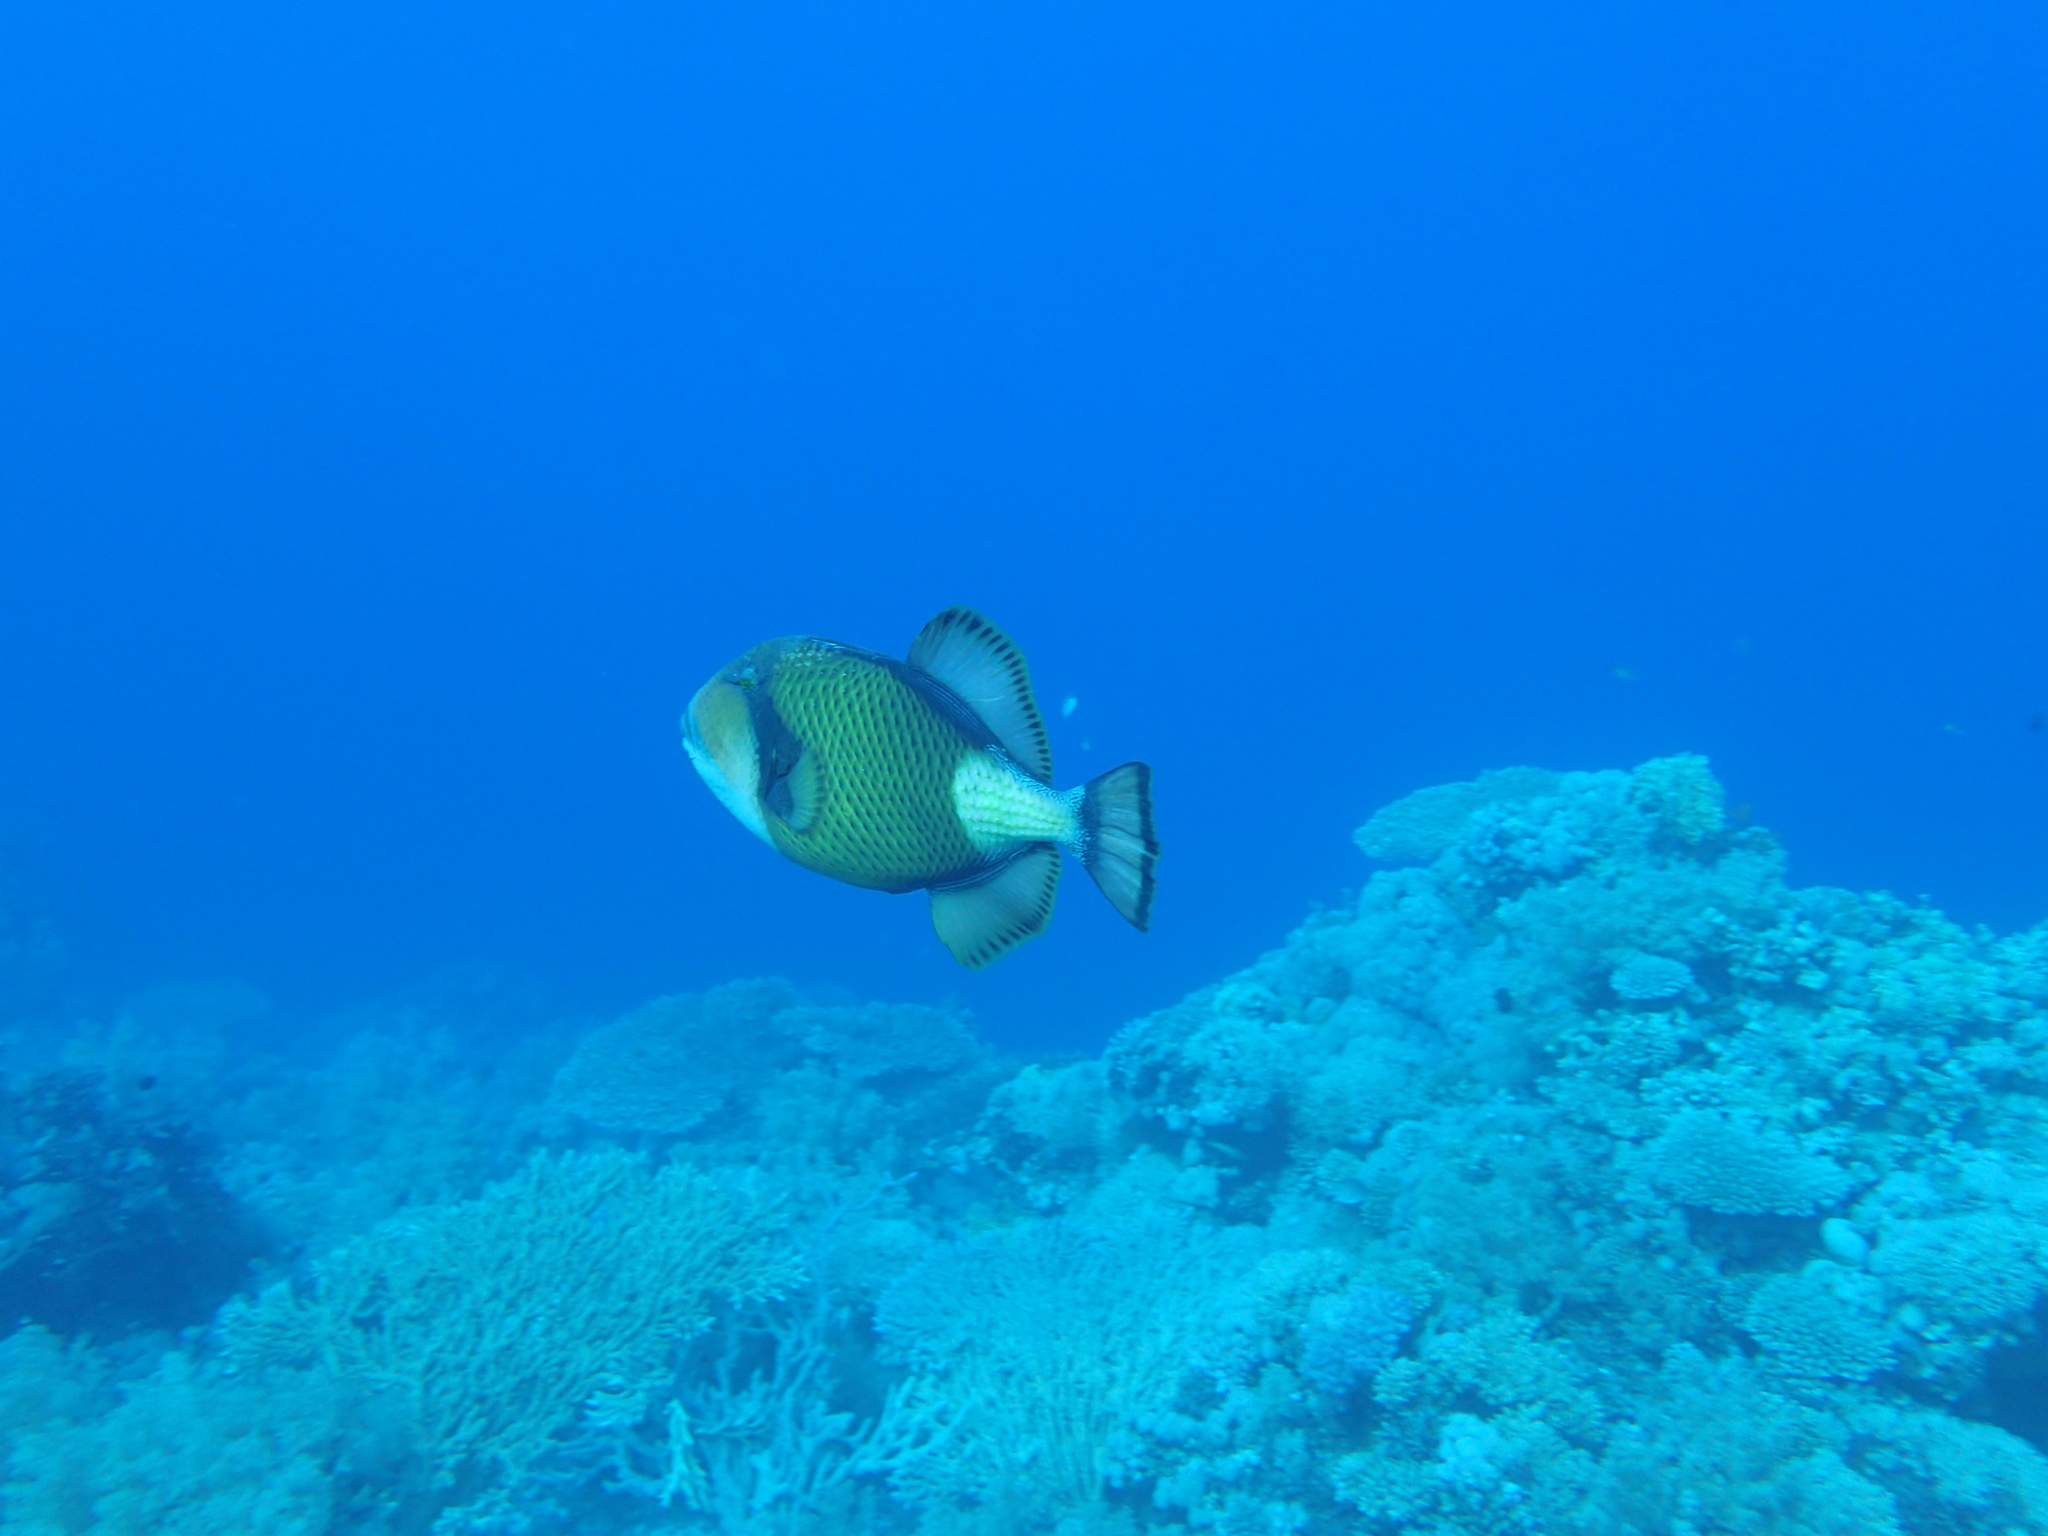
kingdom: Animalia
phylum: Chordata
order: Tetraodontiformes
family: Balistidae
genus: Balistoides
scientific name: Balistoides viridescens
